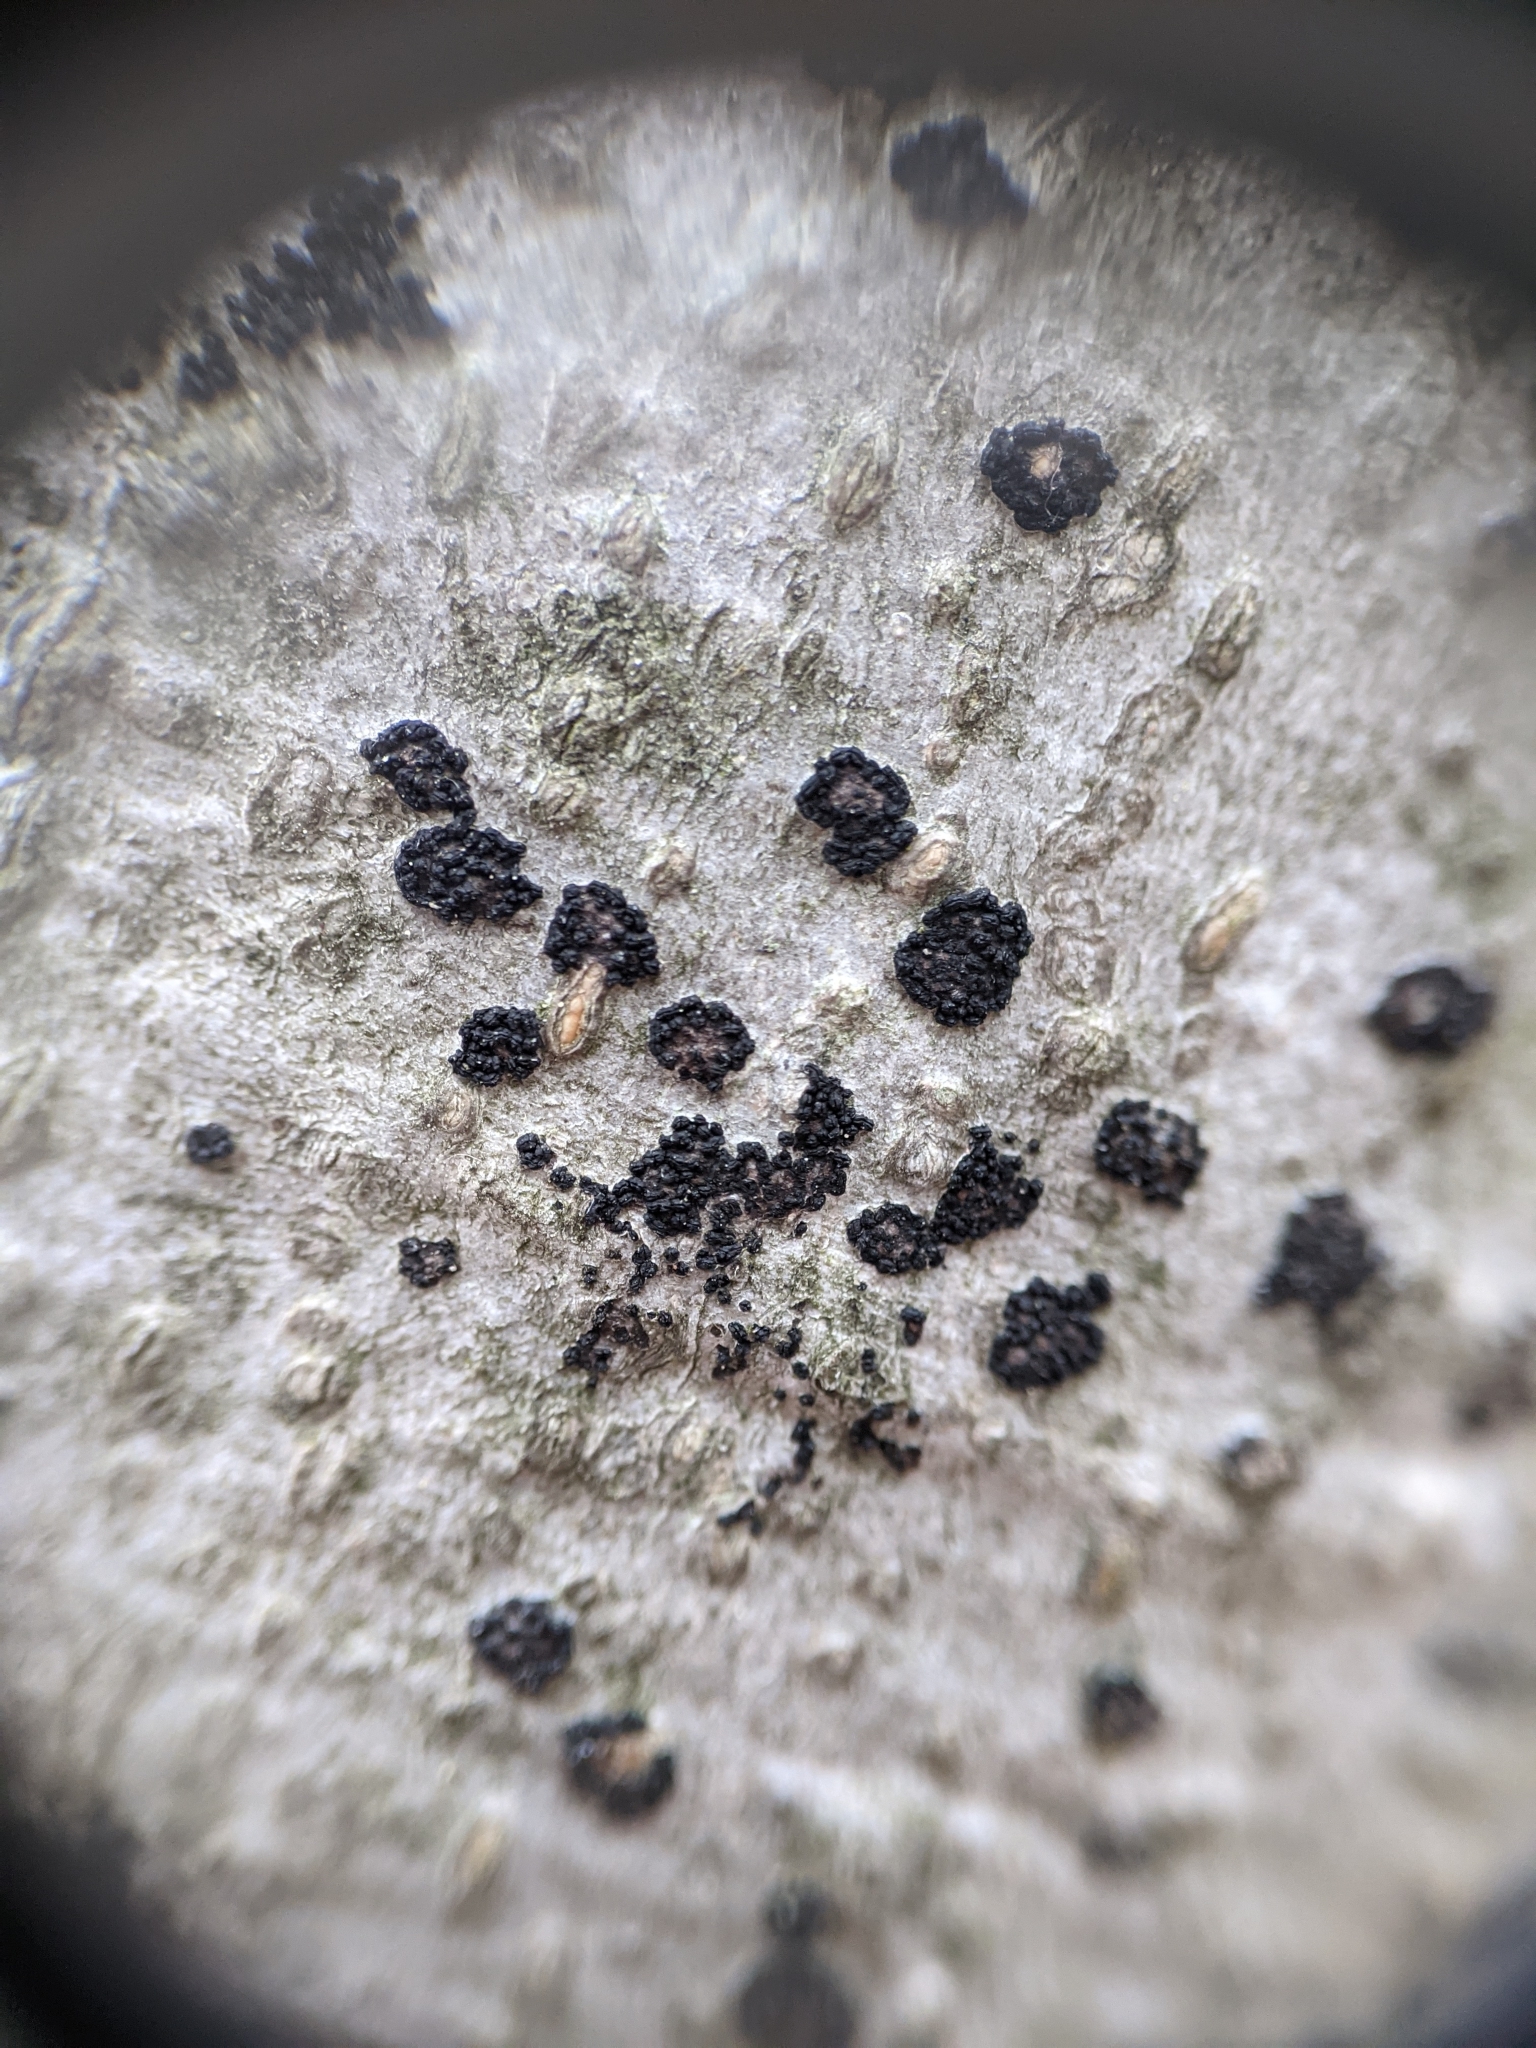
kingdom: Fungi
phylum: Ascomycota
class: Sordariomycetes
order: Hypocreales
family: Nectriaceae
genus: Neonectria
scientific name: Neonectria faginata
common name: Beech bark canker
